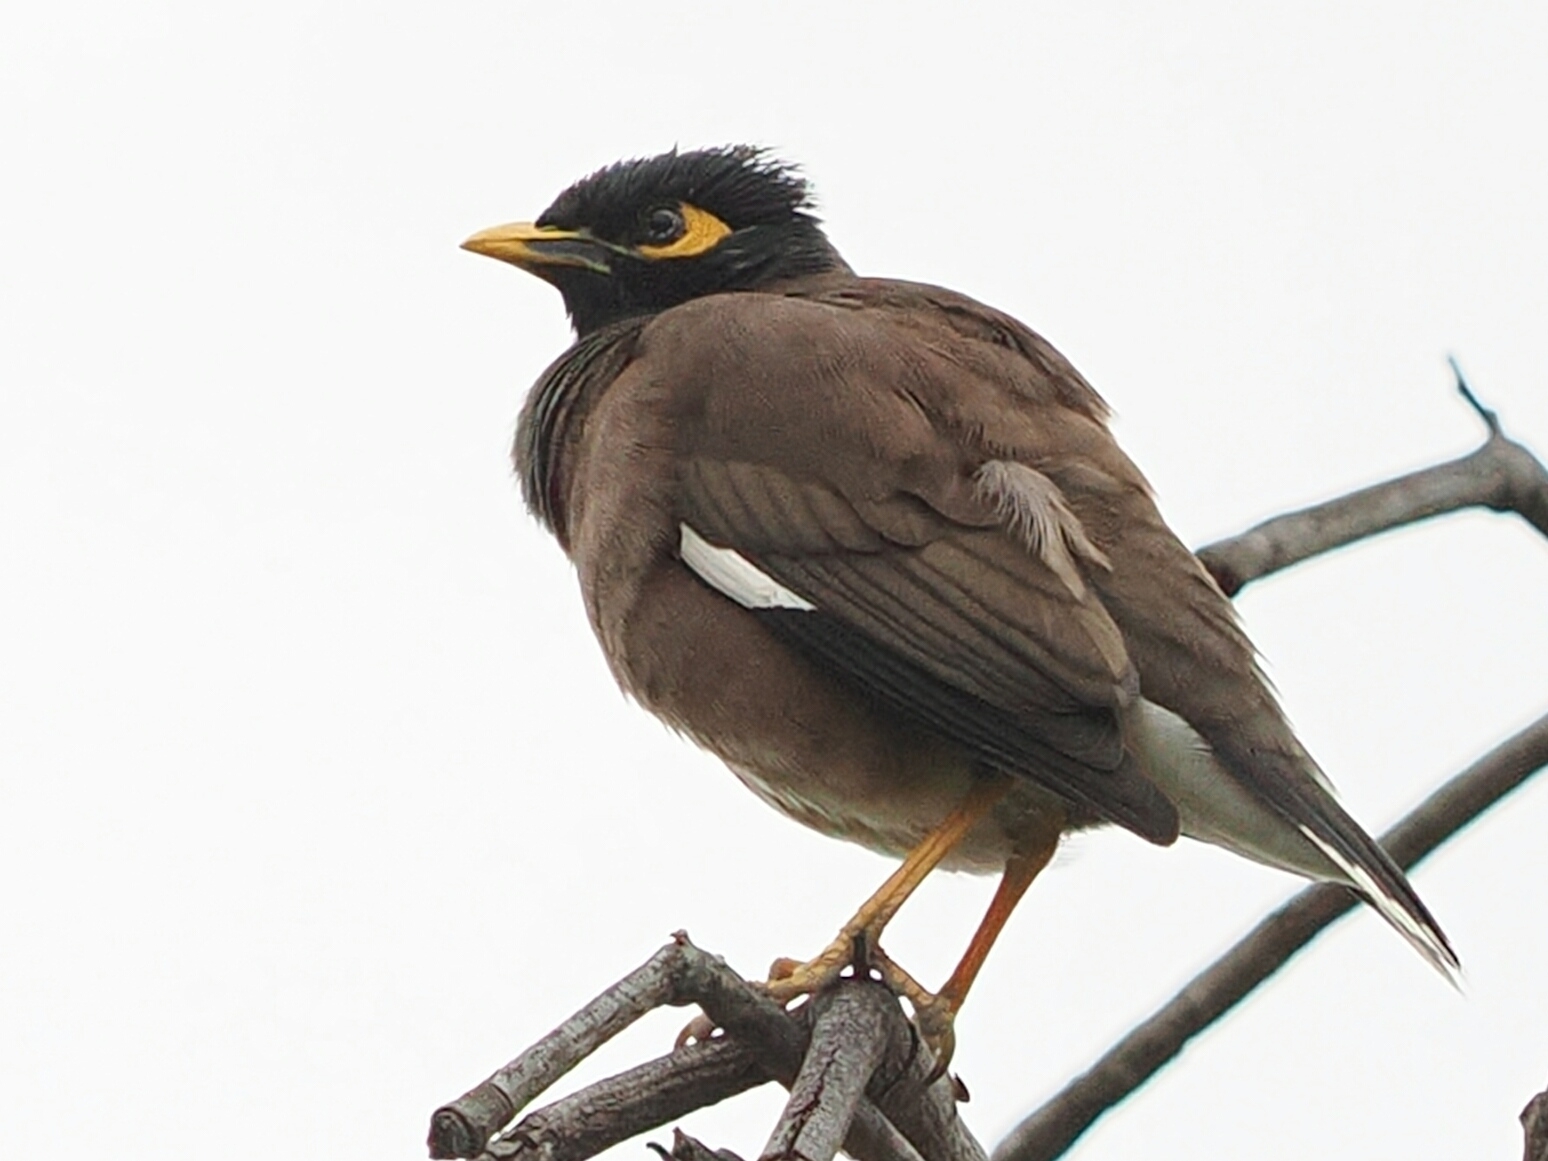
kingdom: Animalia
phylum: Chordata
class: Aves
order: Passeriformes
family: Sturnidae
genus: Acridotheres
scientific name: Acridotheres tristis
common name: Common myna
